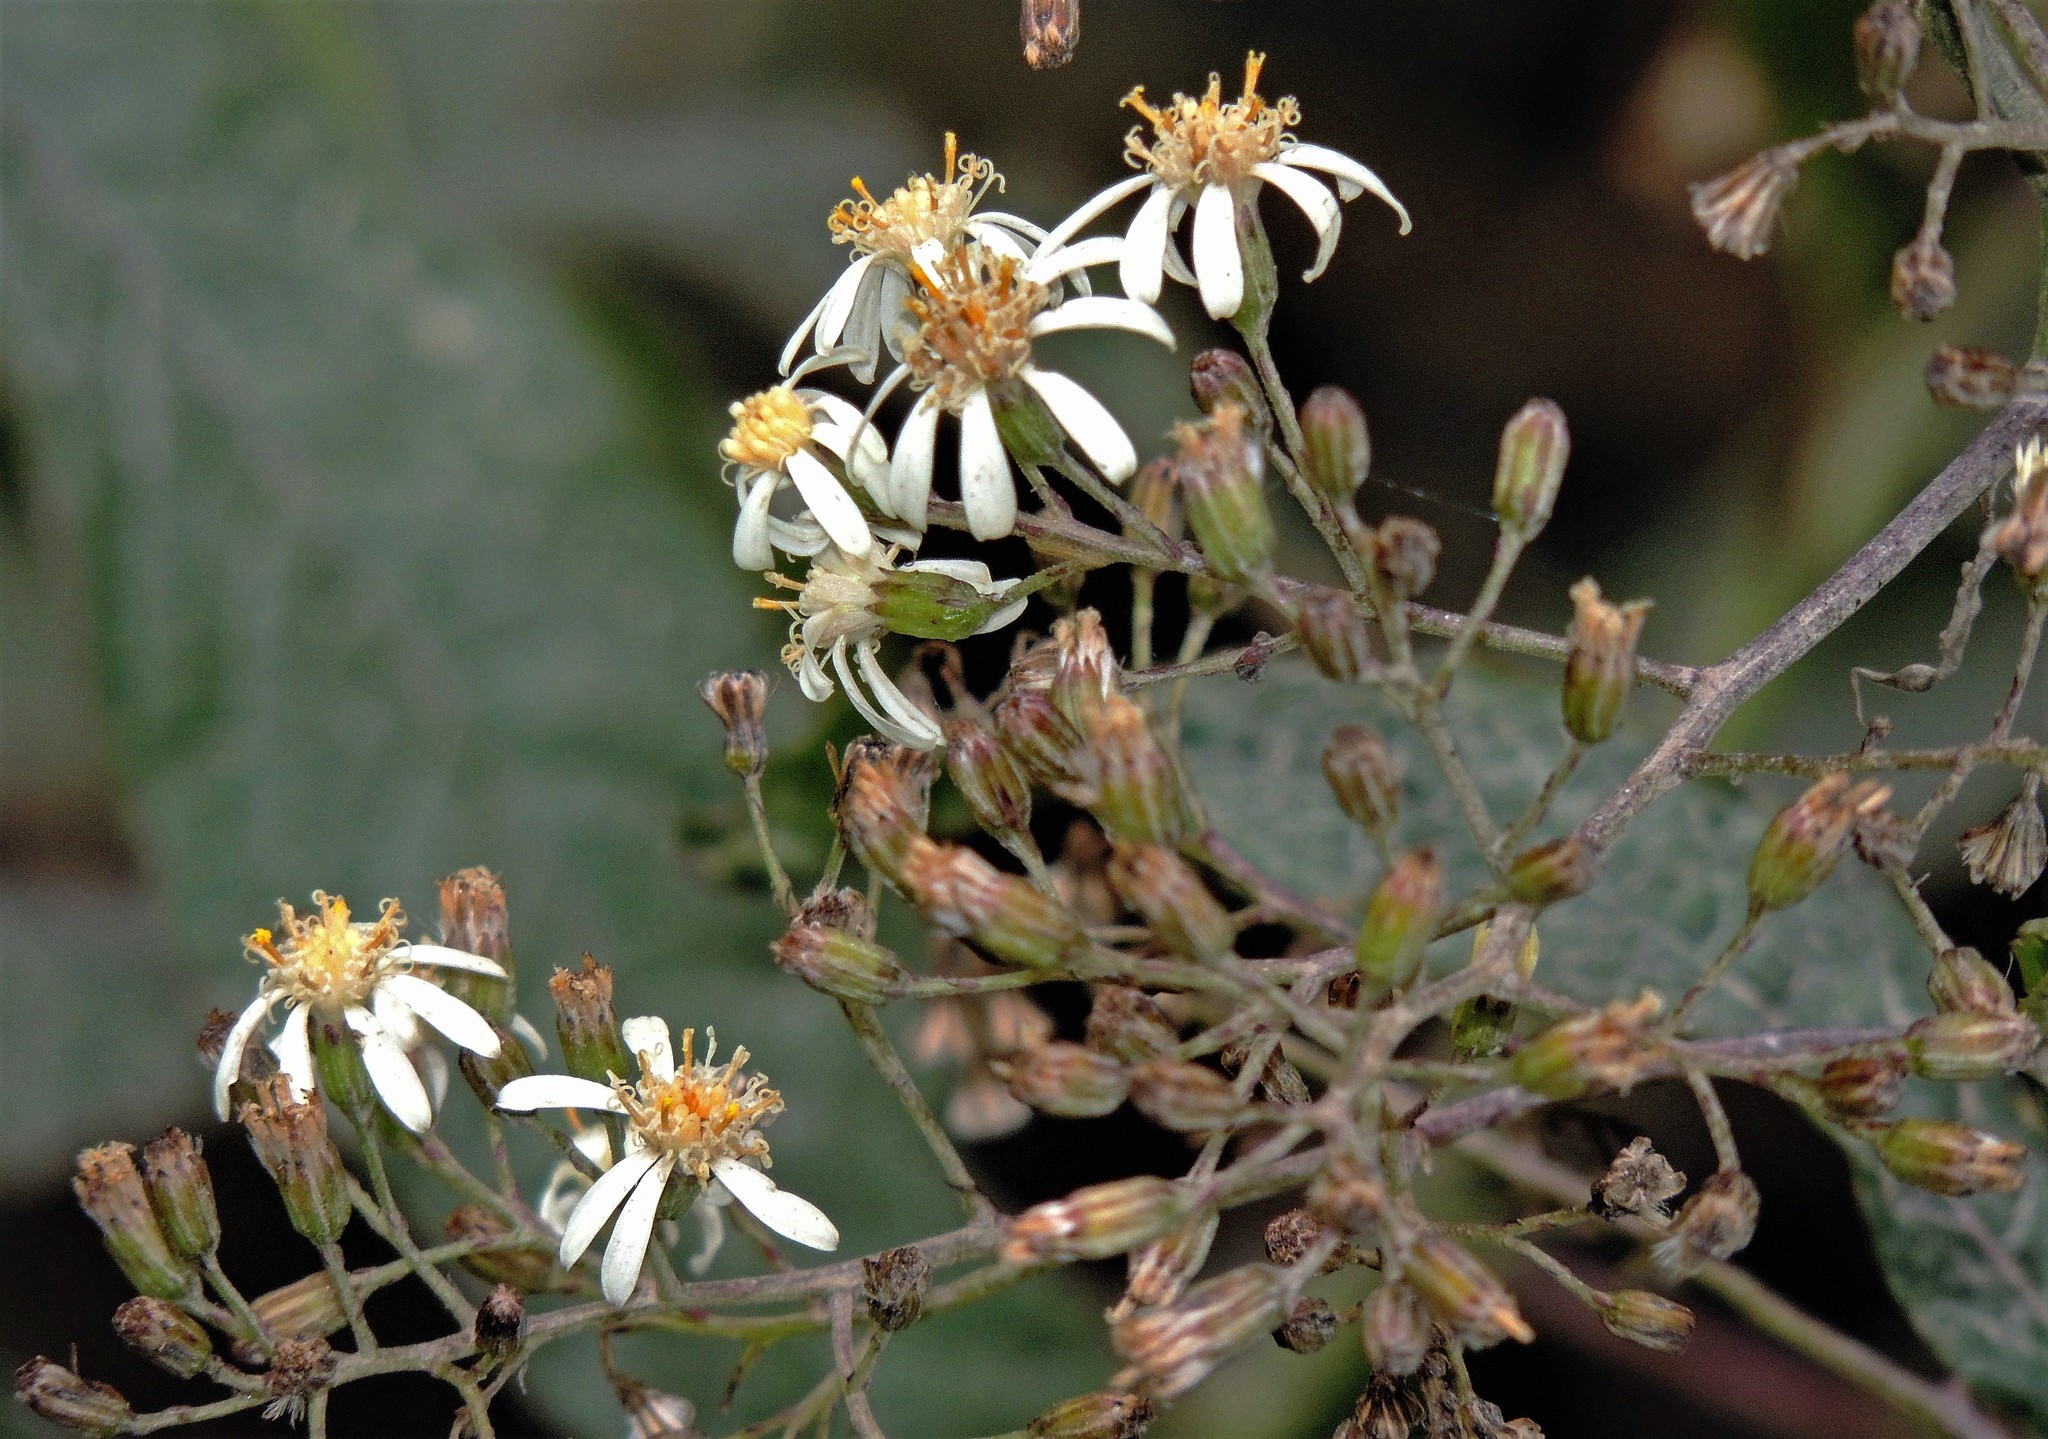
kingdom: Plantae
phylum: Tracheophyta
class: Magnoliopsida
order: Asterales
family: Asteraceae
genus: Dendrophorbium
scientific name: Dendrophorbium peregrinum
